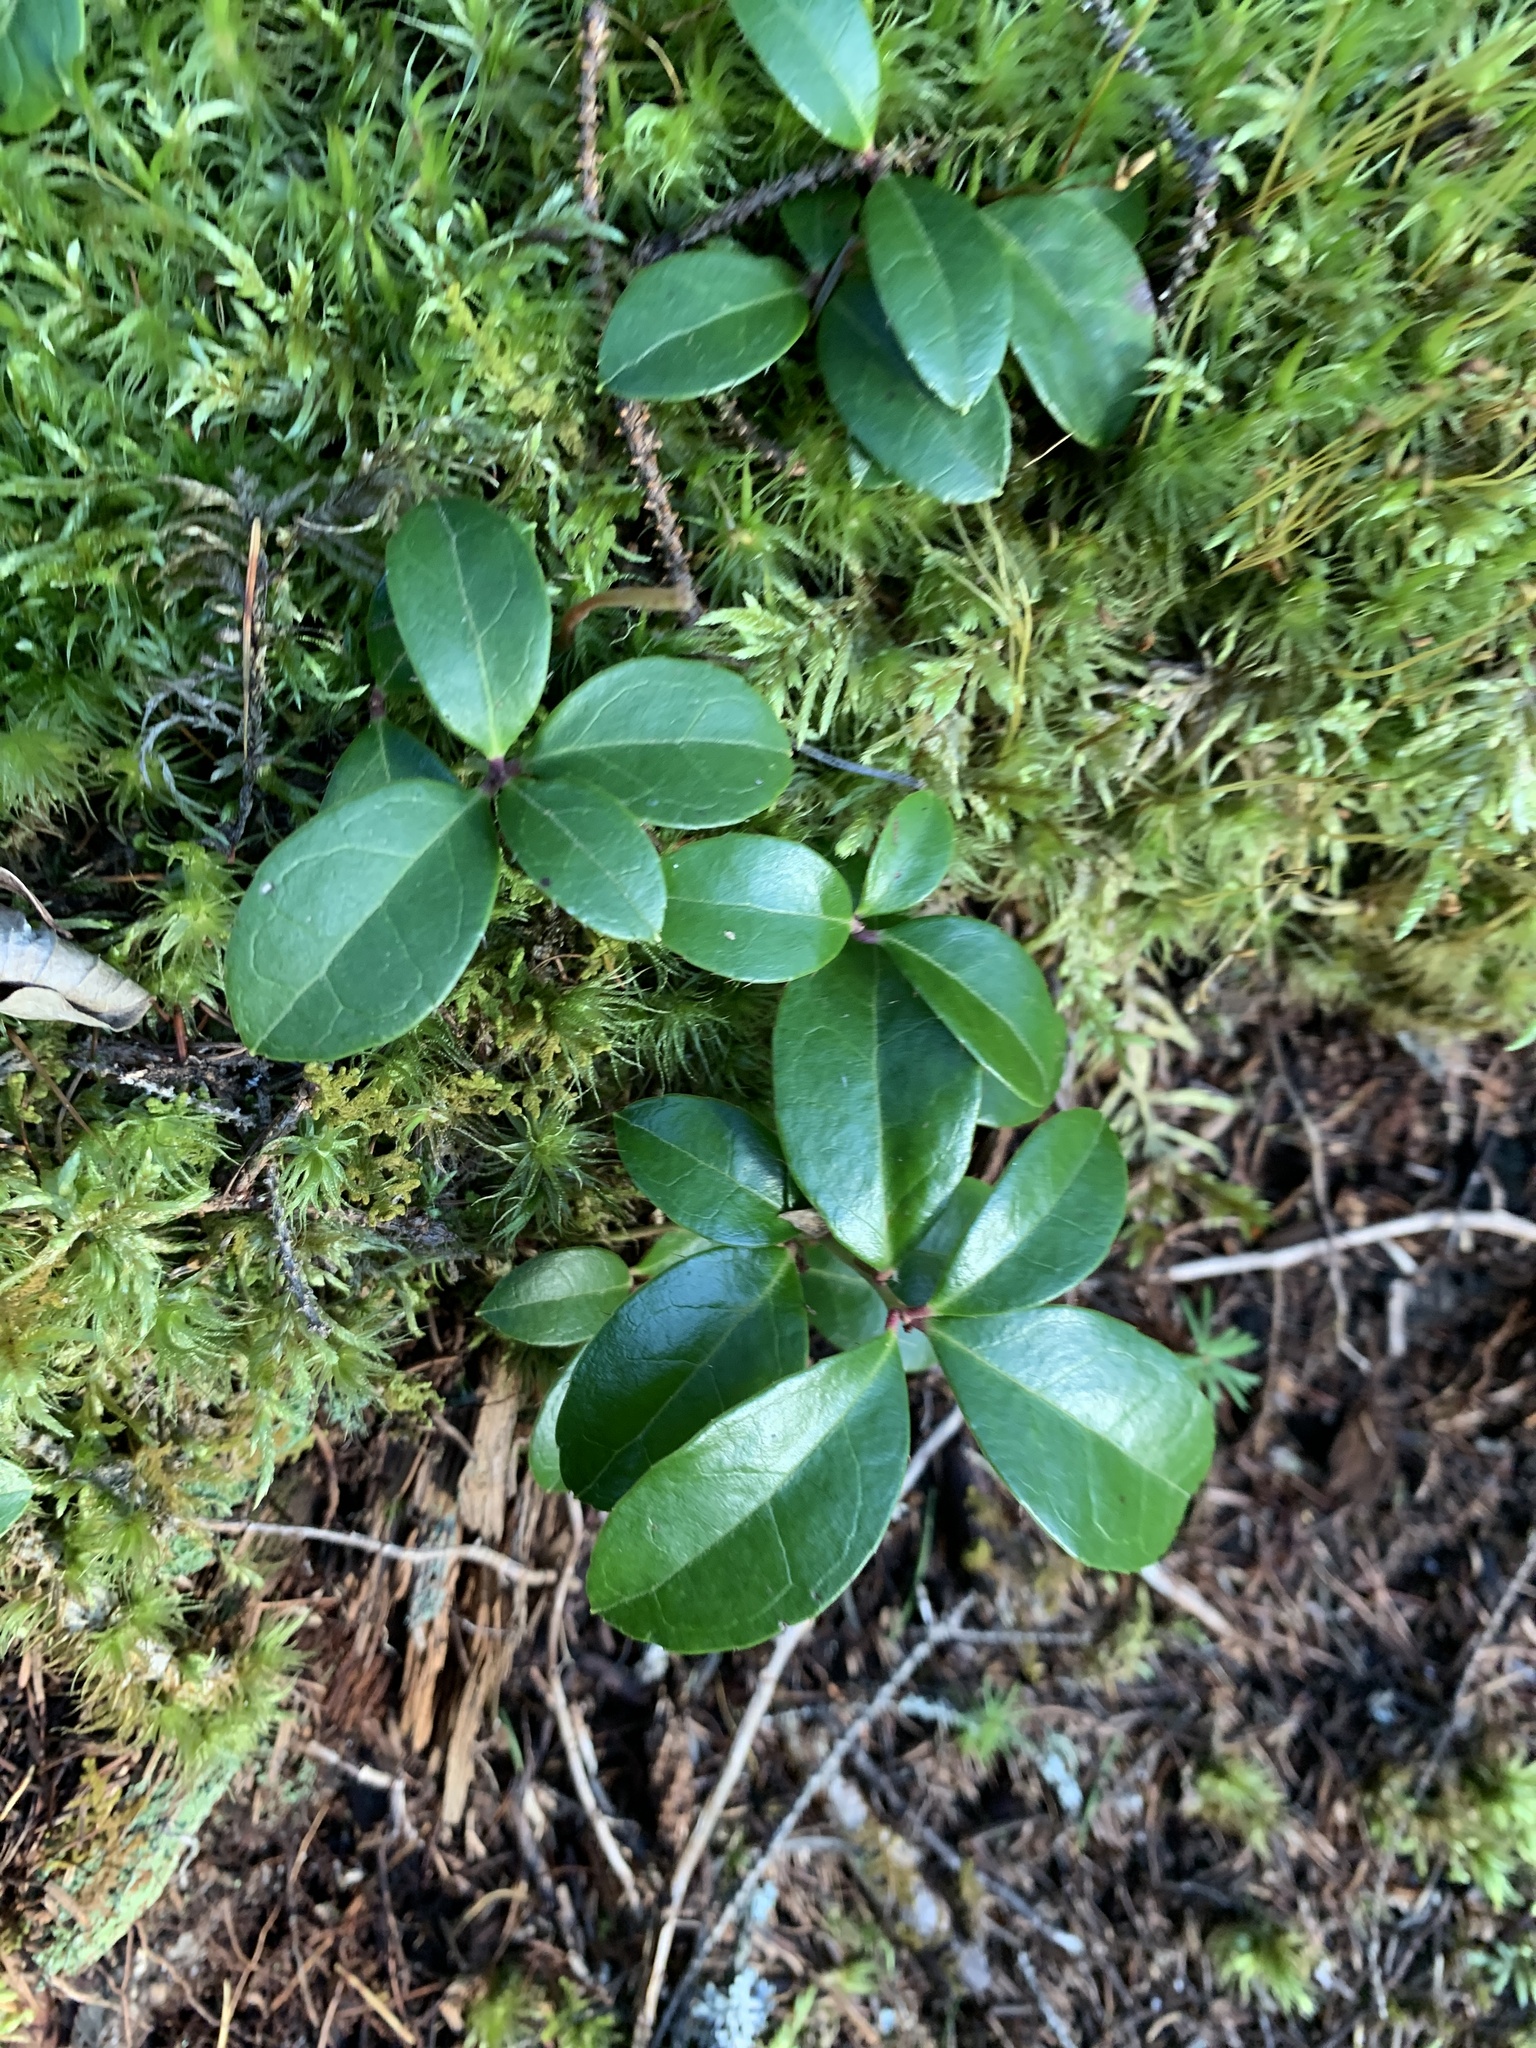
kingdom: Plantae
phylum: Tracheophyta
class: Magnoliopsida
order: Ericales
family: Ericaceae
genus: Gaultheria
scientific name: Gaultheria procumbens
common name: Checkerberry
